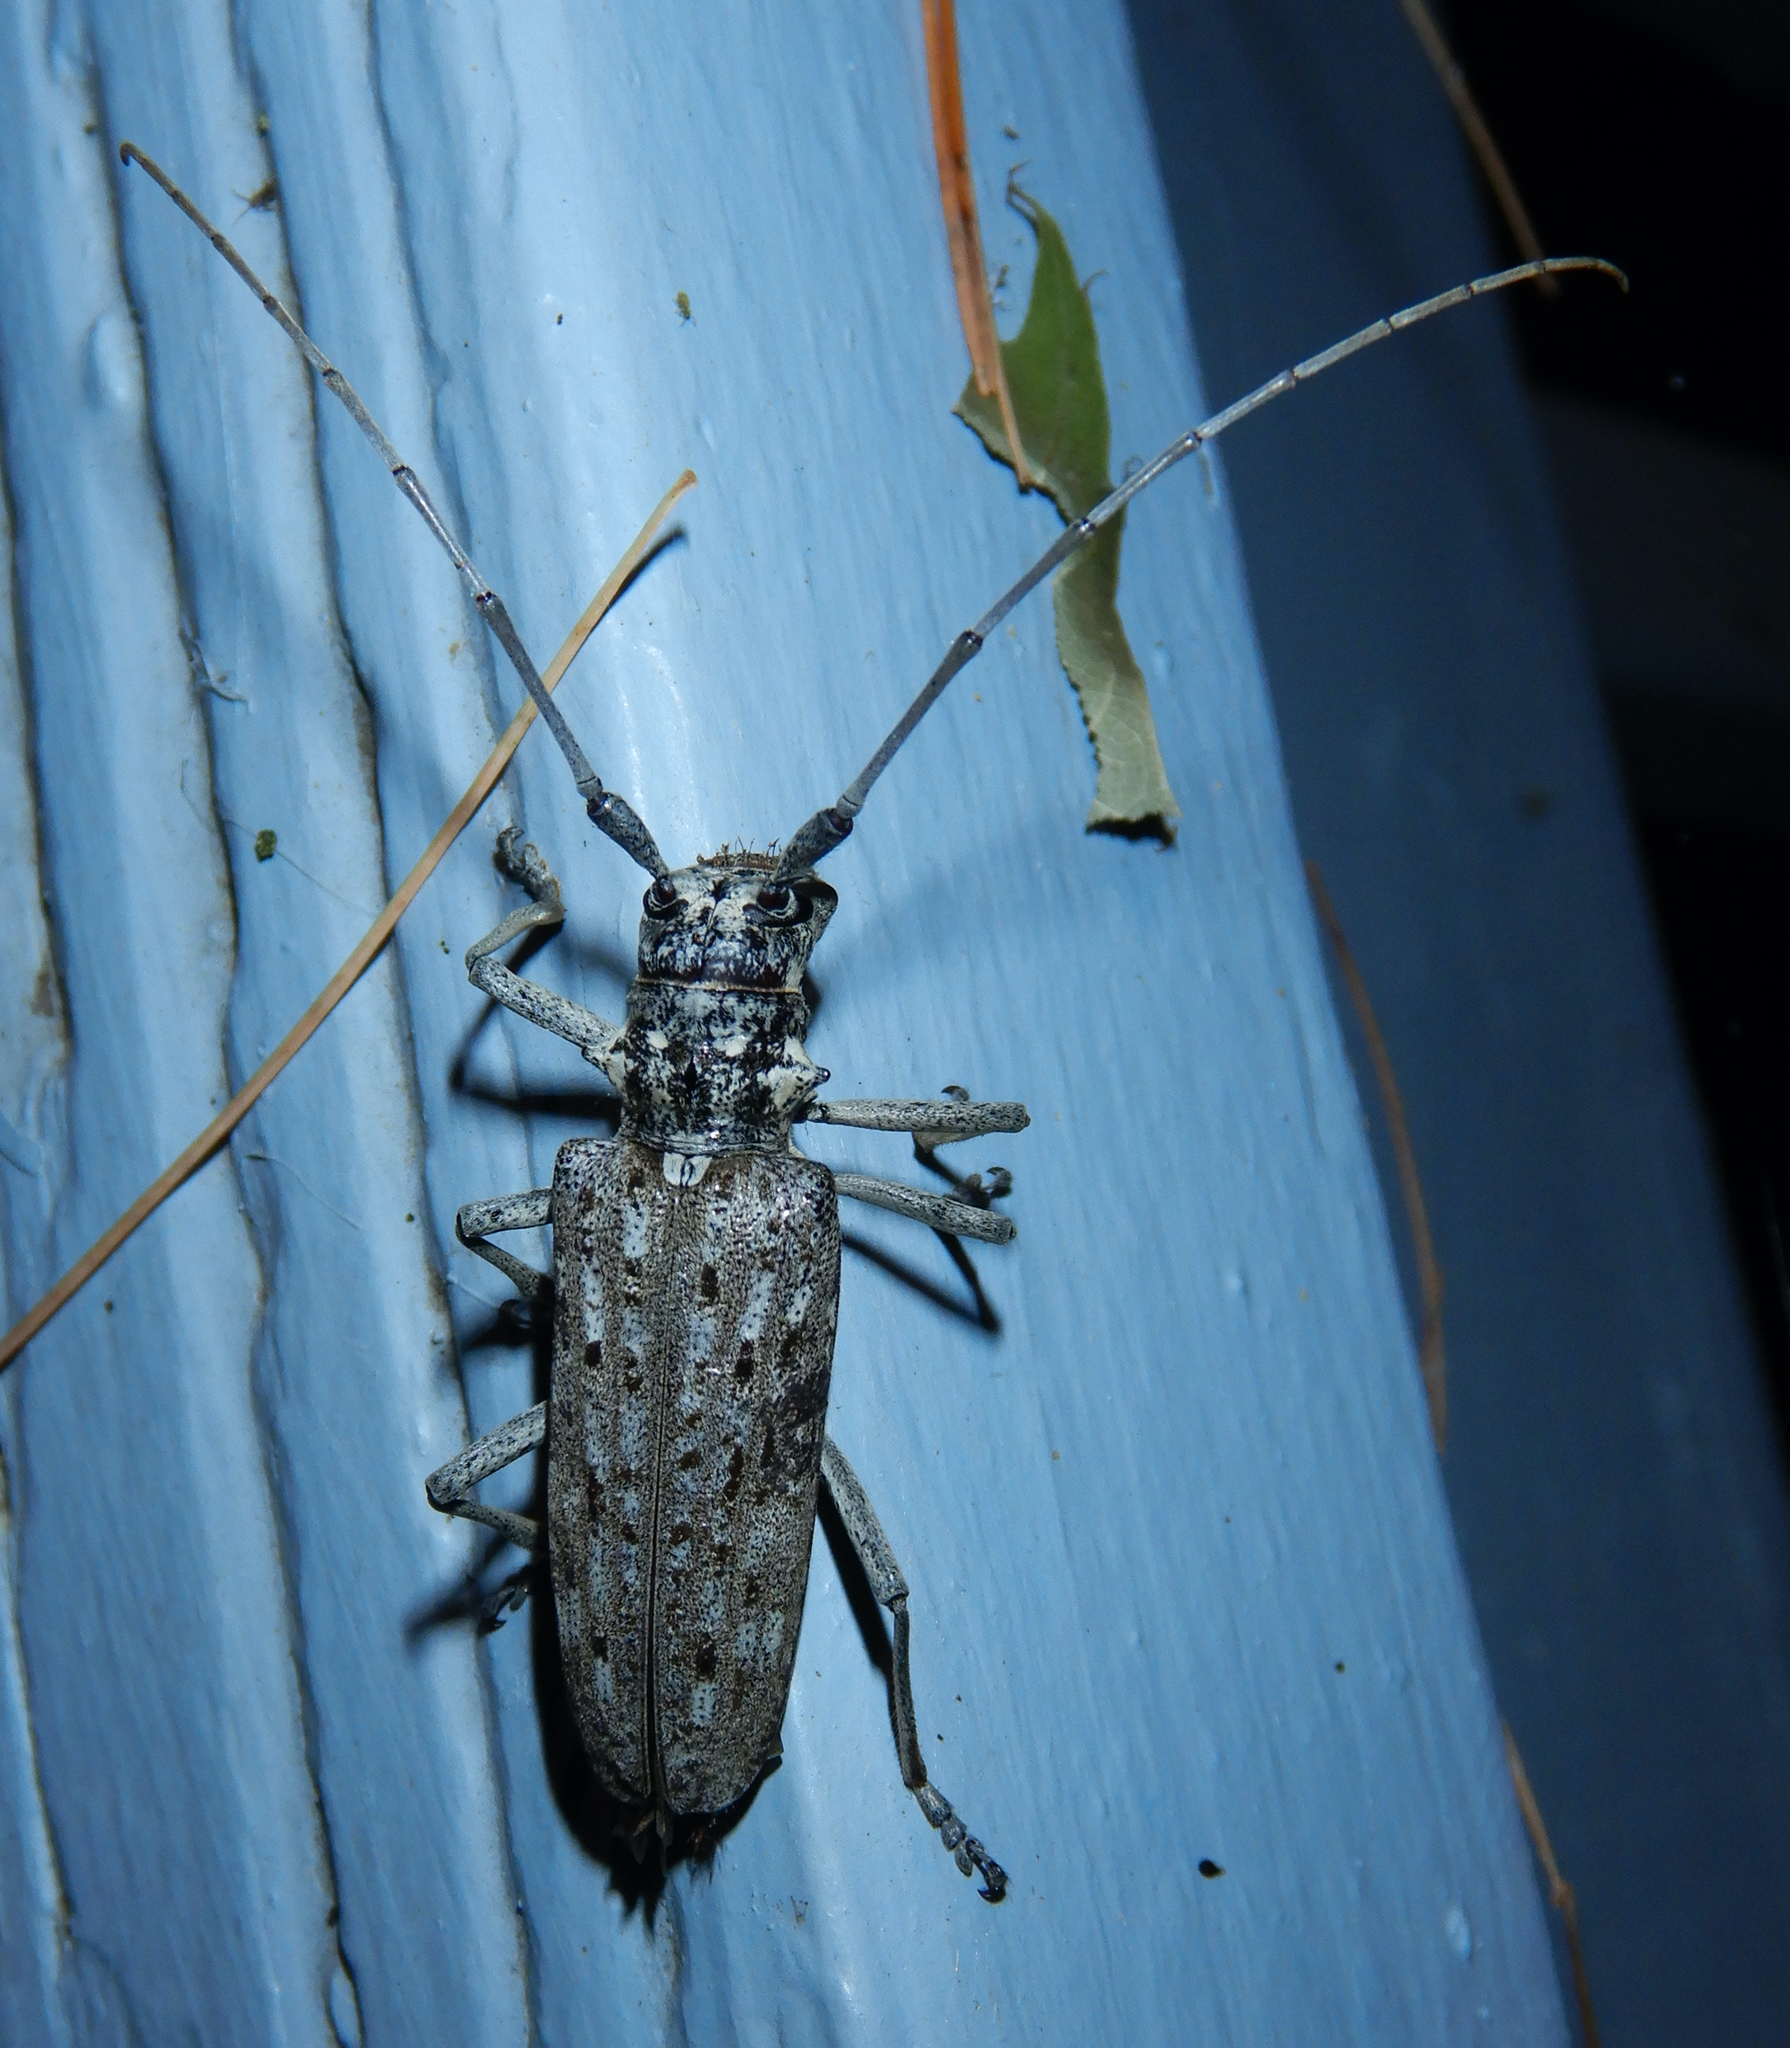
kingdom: Animalia
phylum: Arthropoda
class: Insecta
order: Coleoptera
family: Cerambycidae
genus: Monochamus
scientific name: Monochamus notatus
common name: Northeastern pine sawyer beetle
